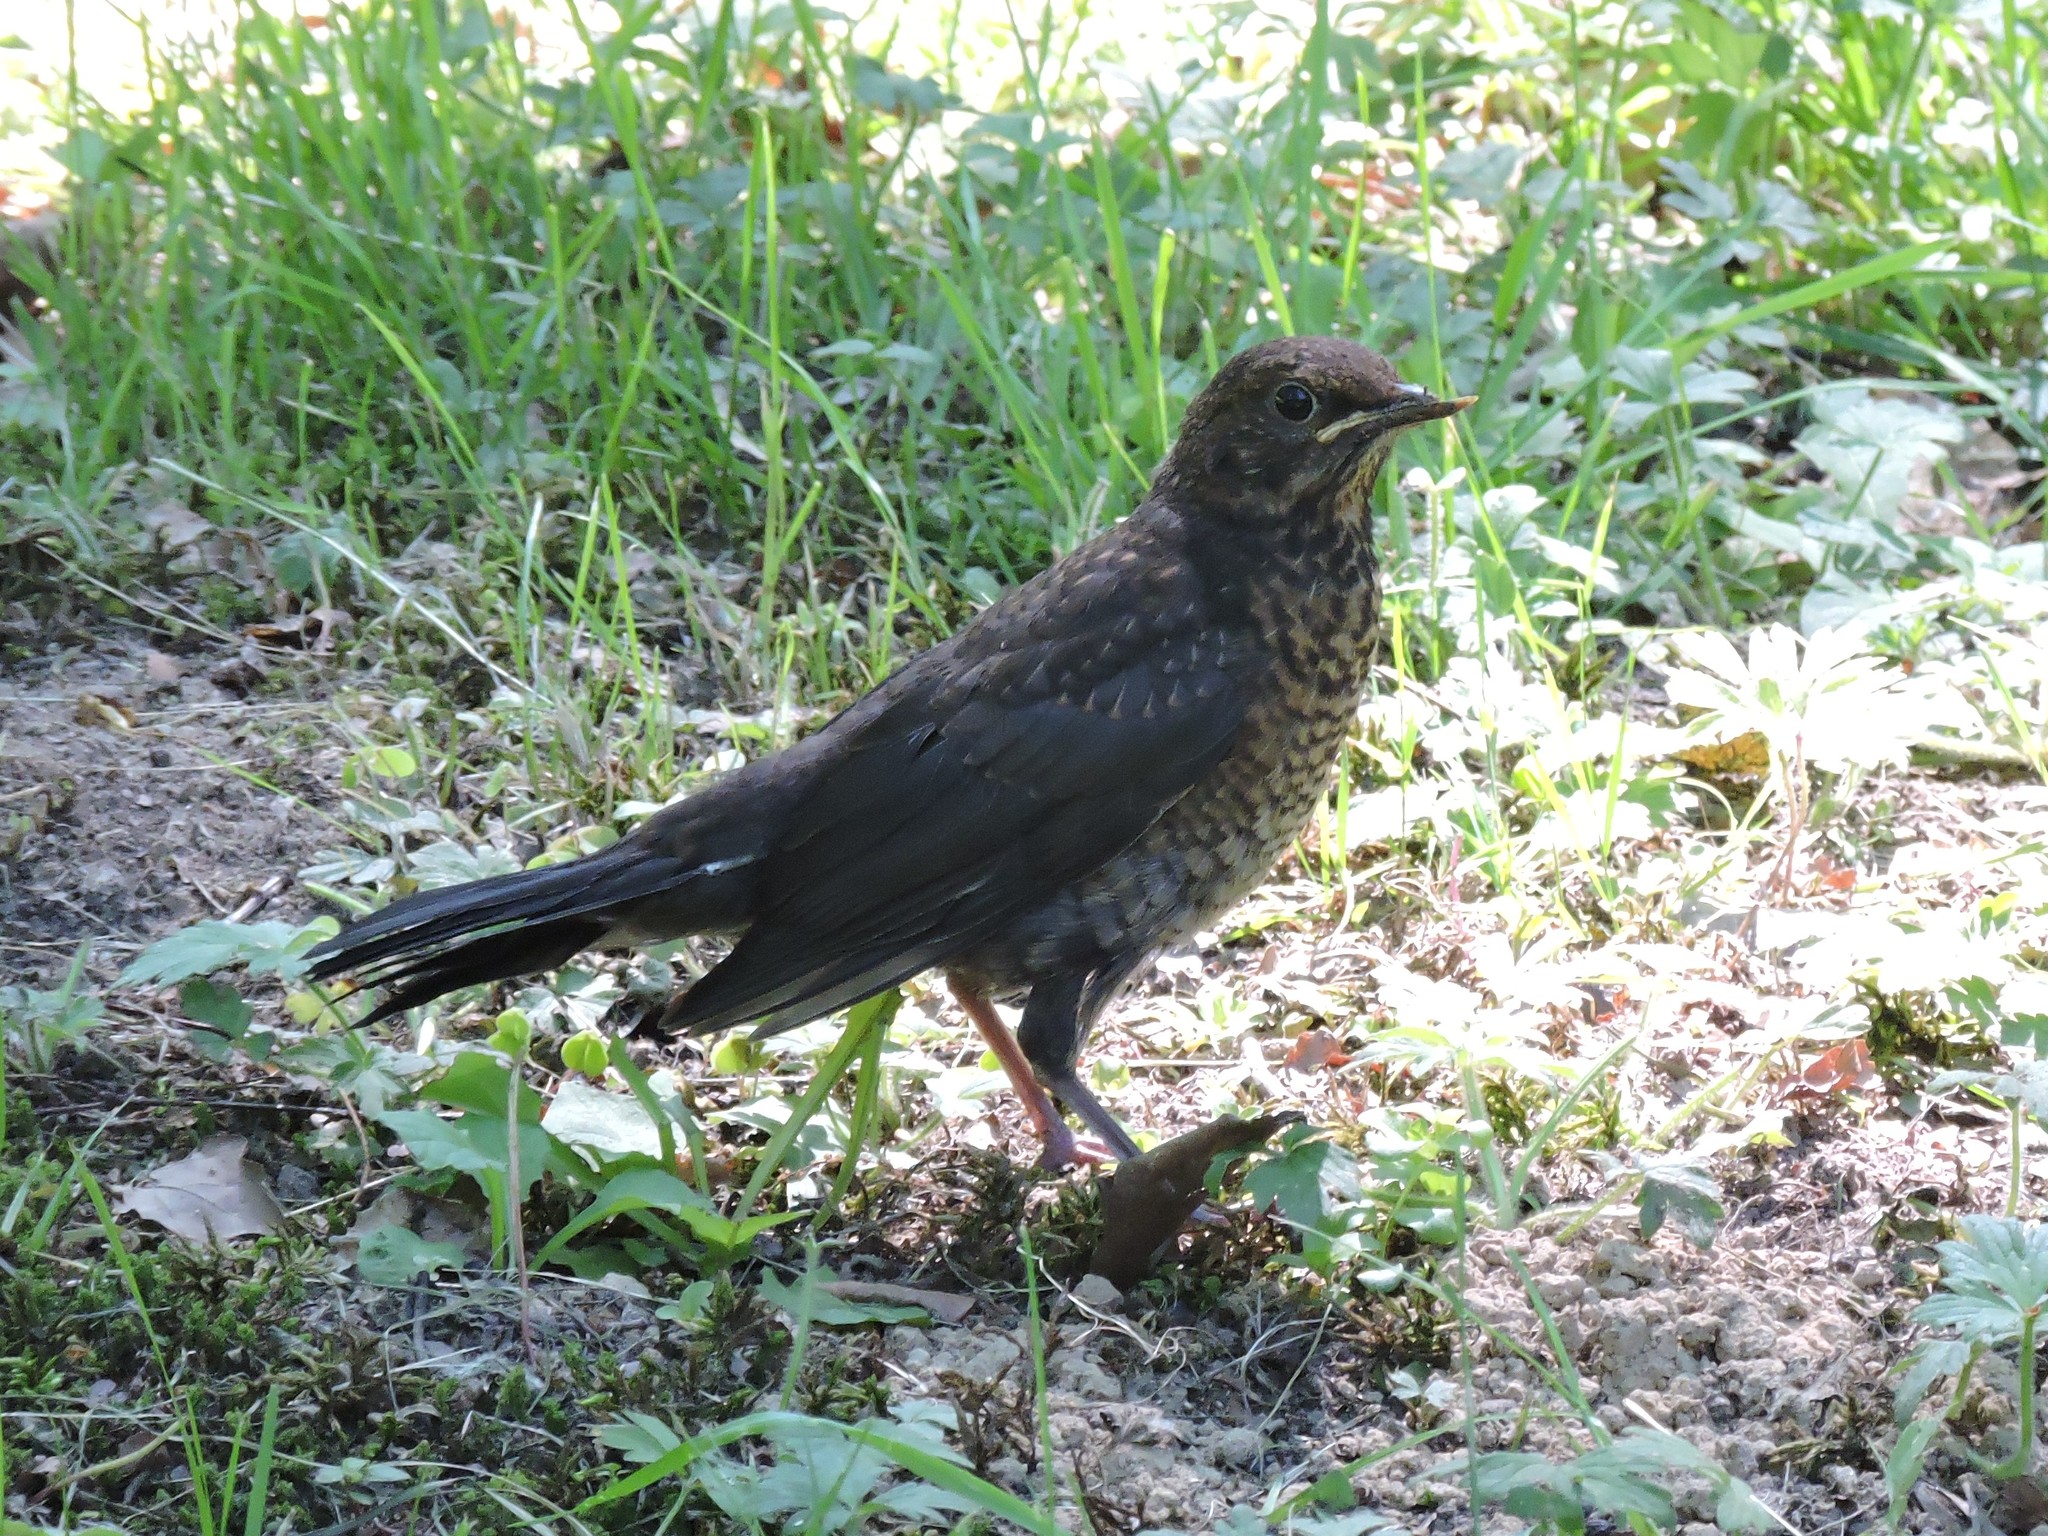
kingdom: Animalia
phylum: Chordata
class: Aves
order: Passeriformes
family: Turdidae
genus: Turdus
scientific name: Turdus merula
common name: Common blackbird
